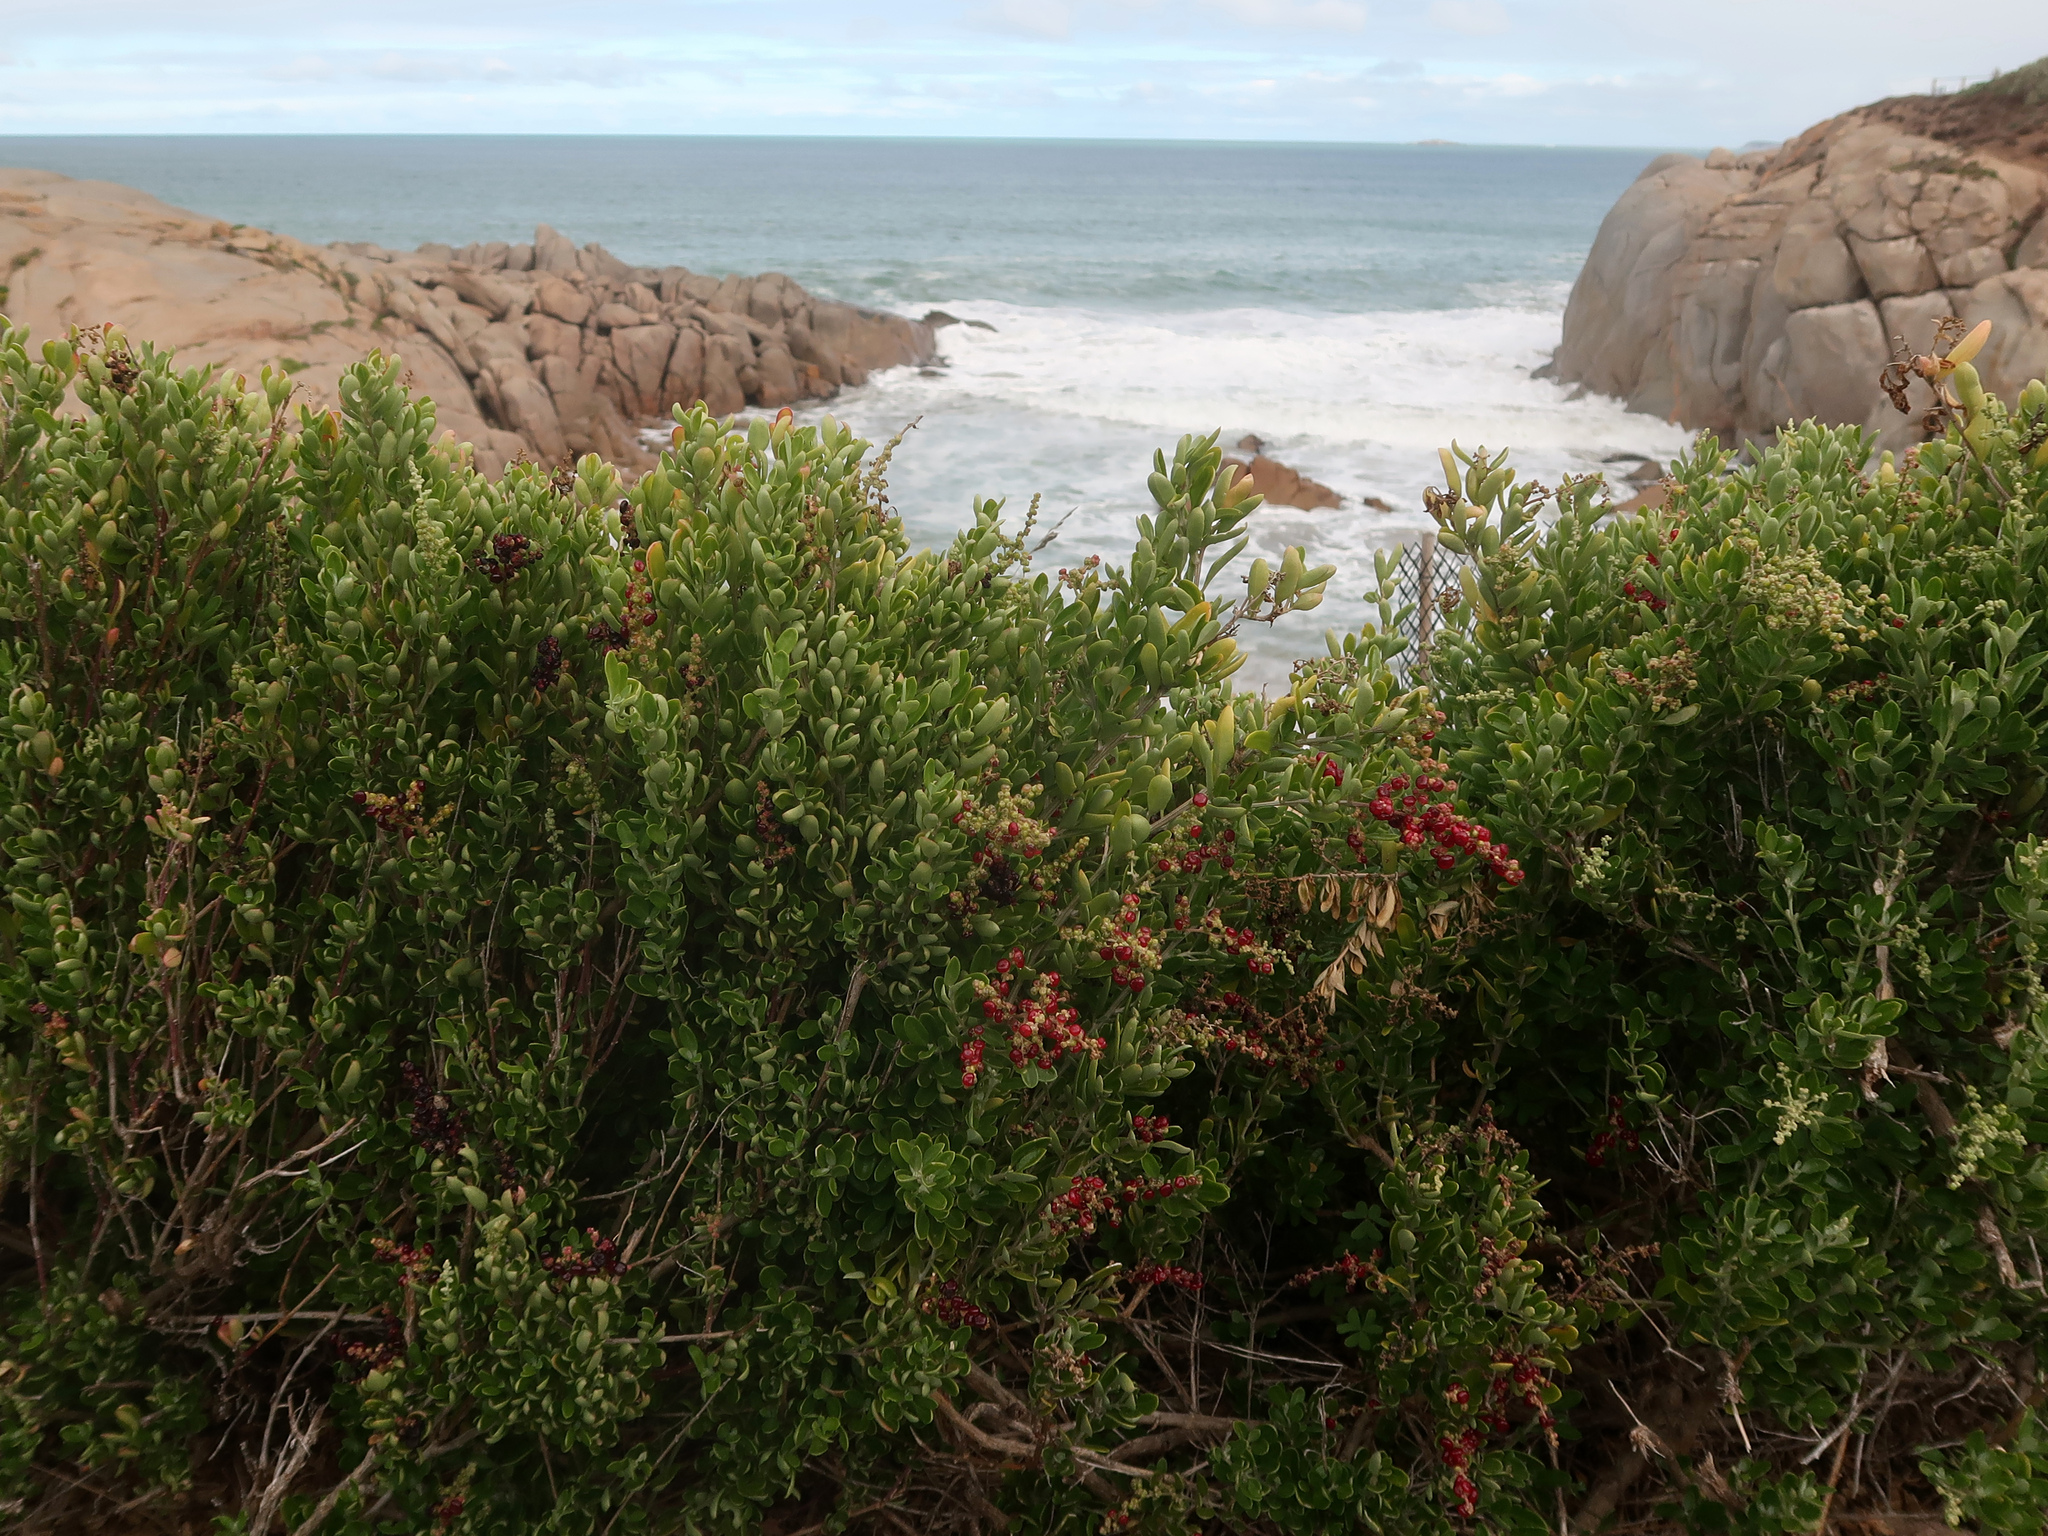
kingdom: Plantae
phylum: Tracheophyta
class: Magnoliopsida
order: Caryophyllales
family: Amaranthaceae
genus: Chenopodium
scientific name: Chenopodium candolleanum
